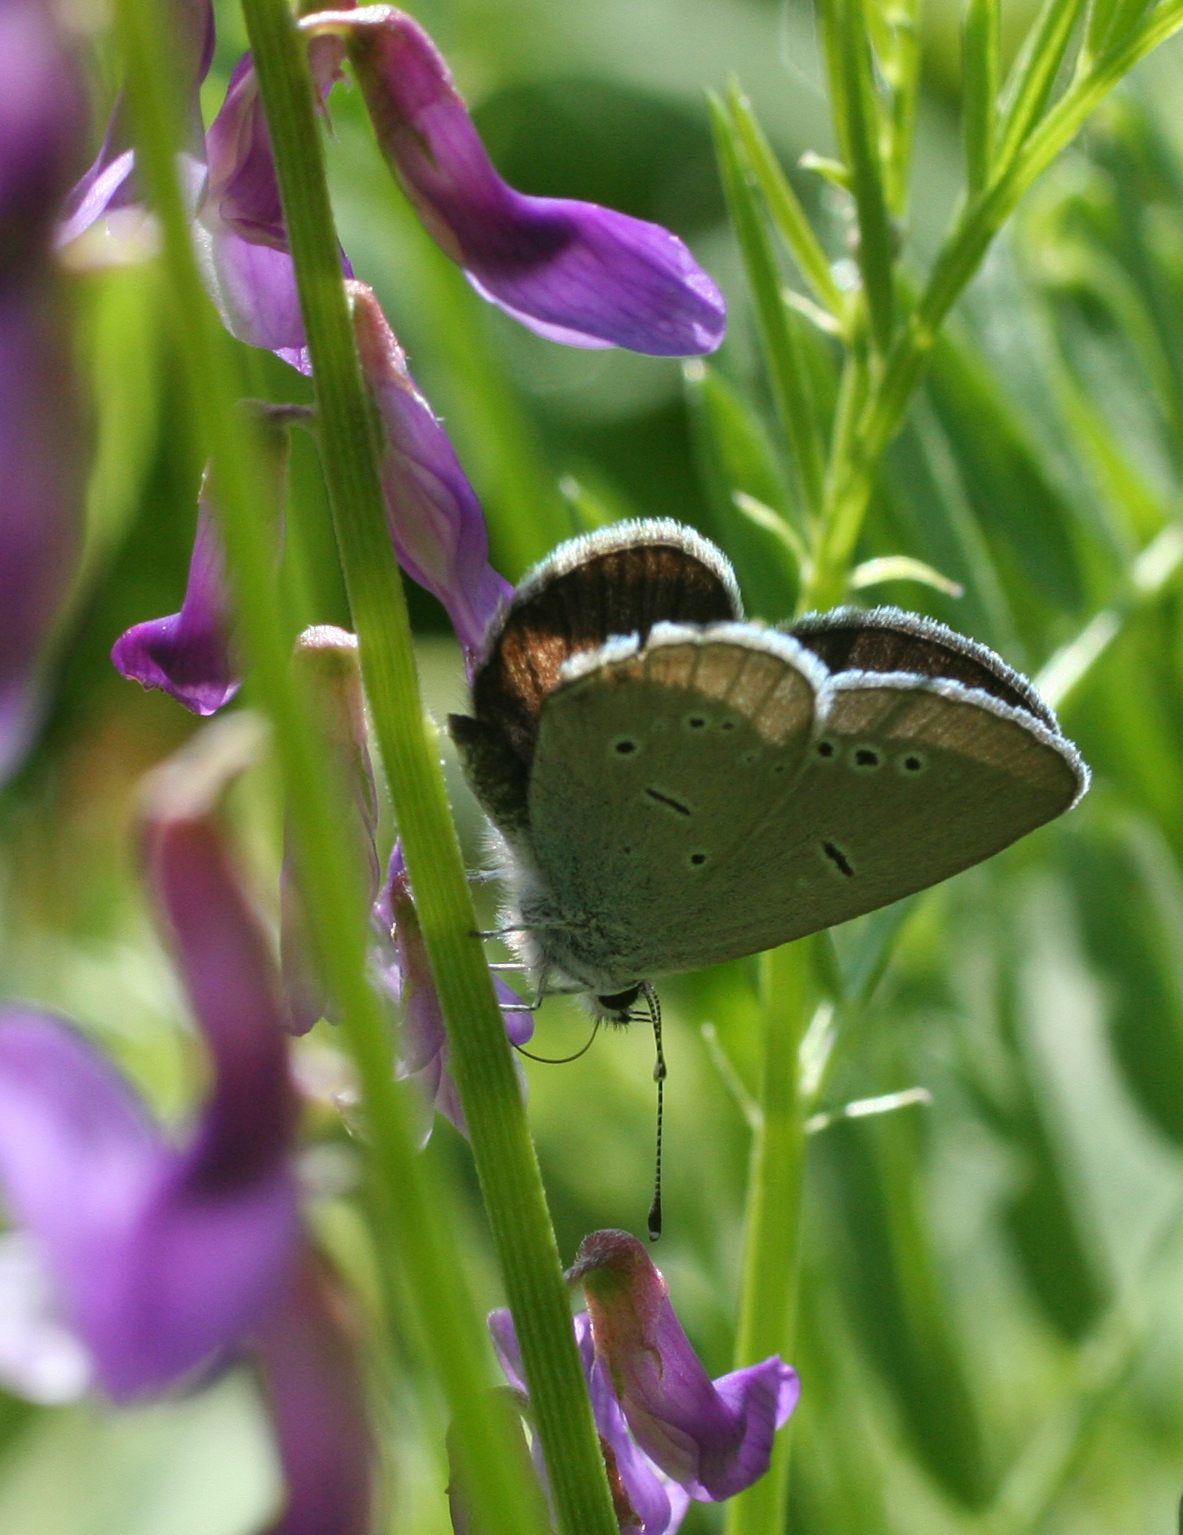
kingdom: Animalia
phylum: Arthropoda
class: Insecta
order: Lepidoptera
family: Lycaenidae
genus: Cupido
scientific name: Cupido minimus
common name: Small blue
